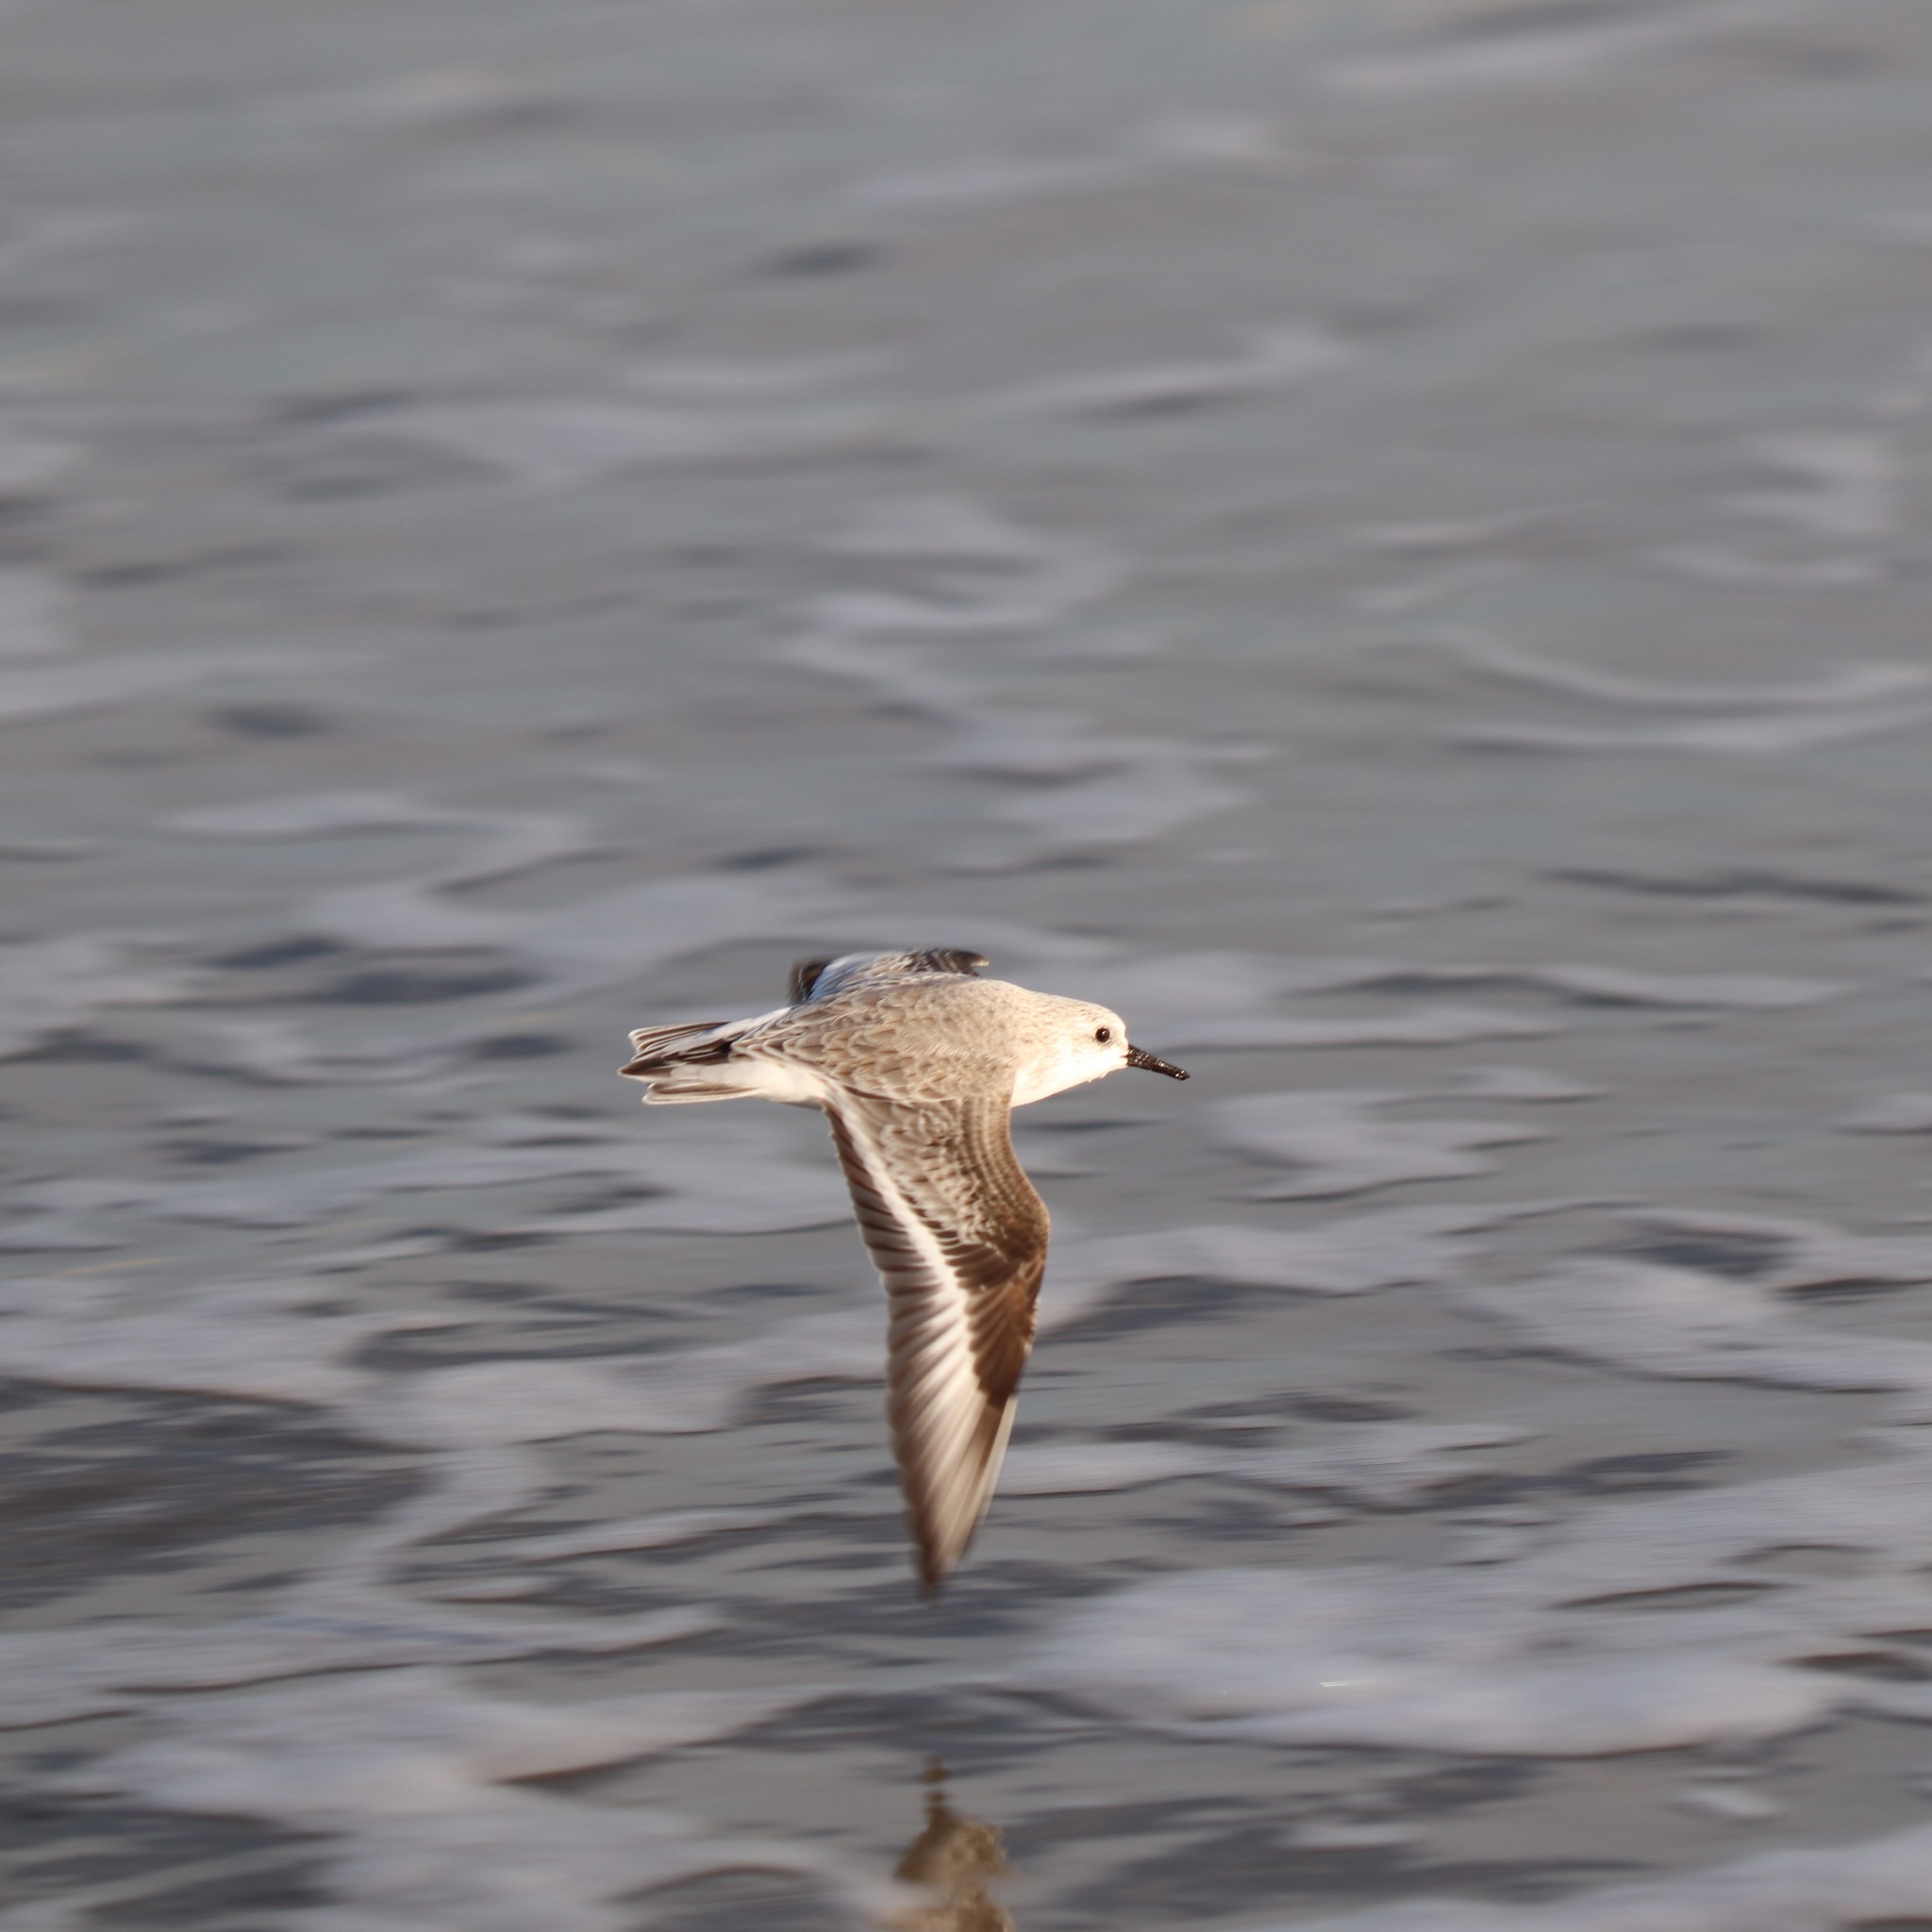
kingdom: Animalia
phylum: Chordata
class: Aves
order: Charadriiformes
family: Scolopacidae
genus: Calidris
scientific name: Calidris alba
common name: Sanderling
